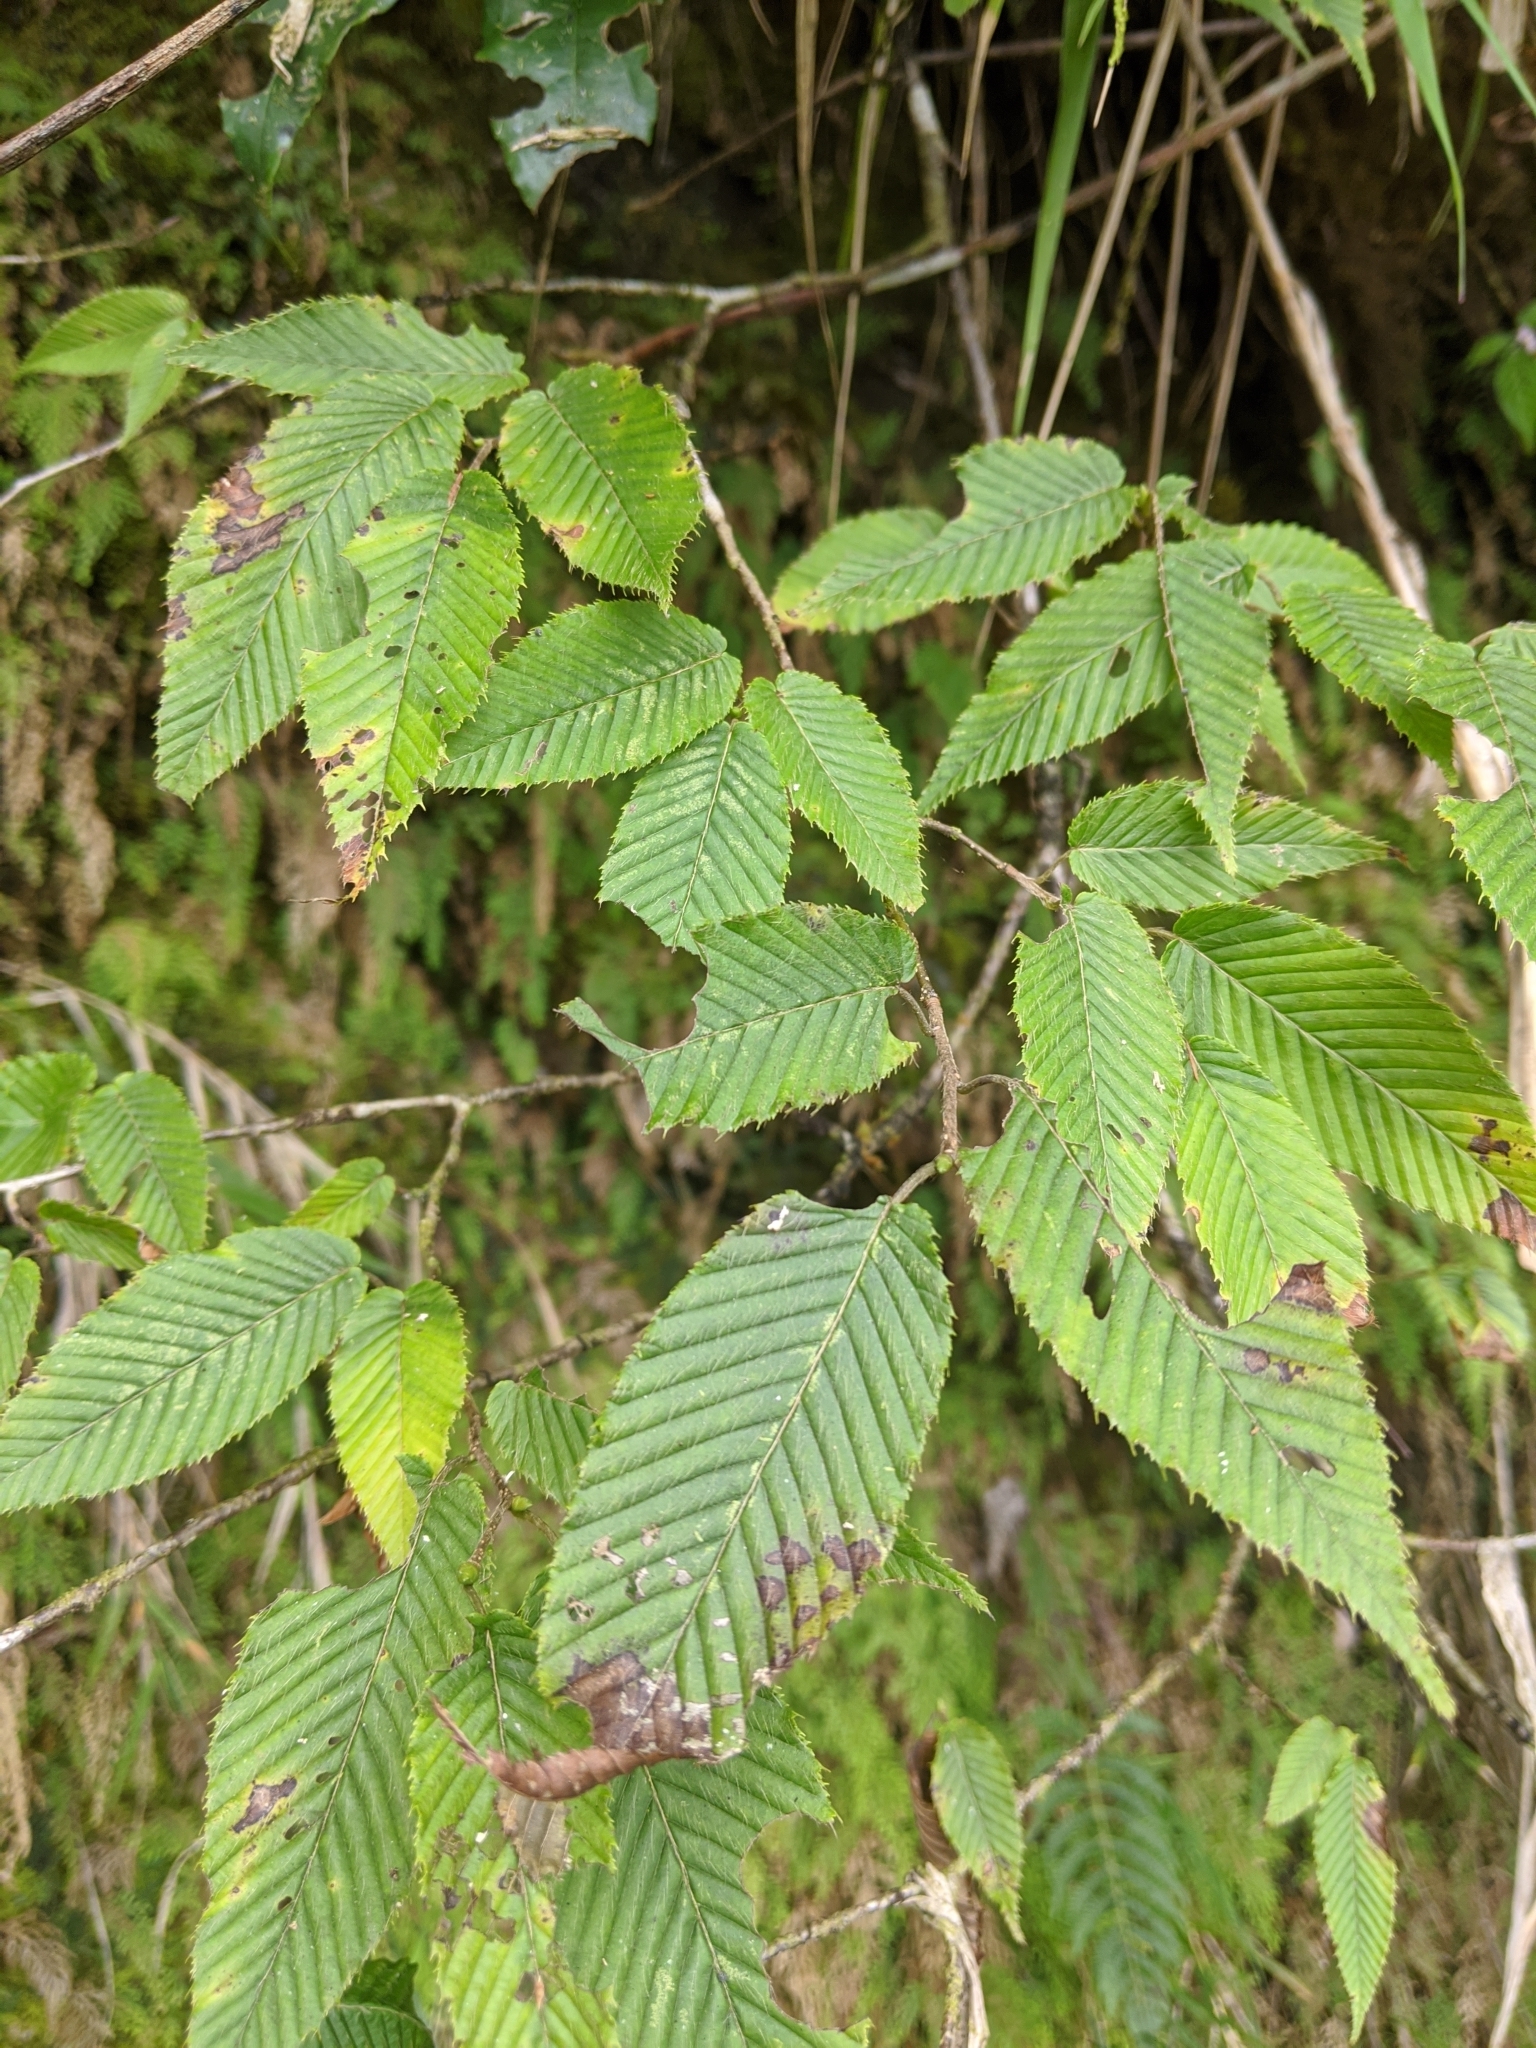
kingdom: Plantae
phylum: Tracheophyta
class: Magnoliopsida
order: Fagales
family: Betulaceae
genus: Carpinus
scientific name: Carpinus rankanensis
